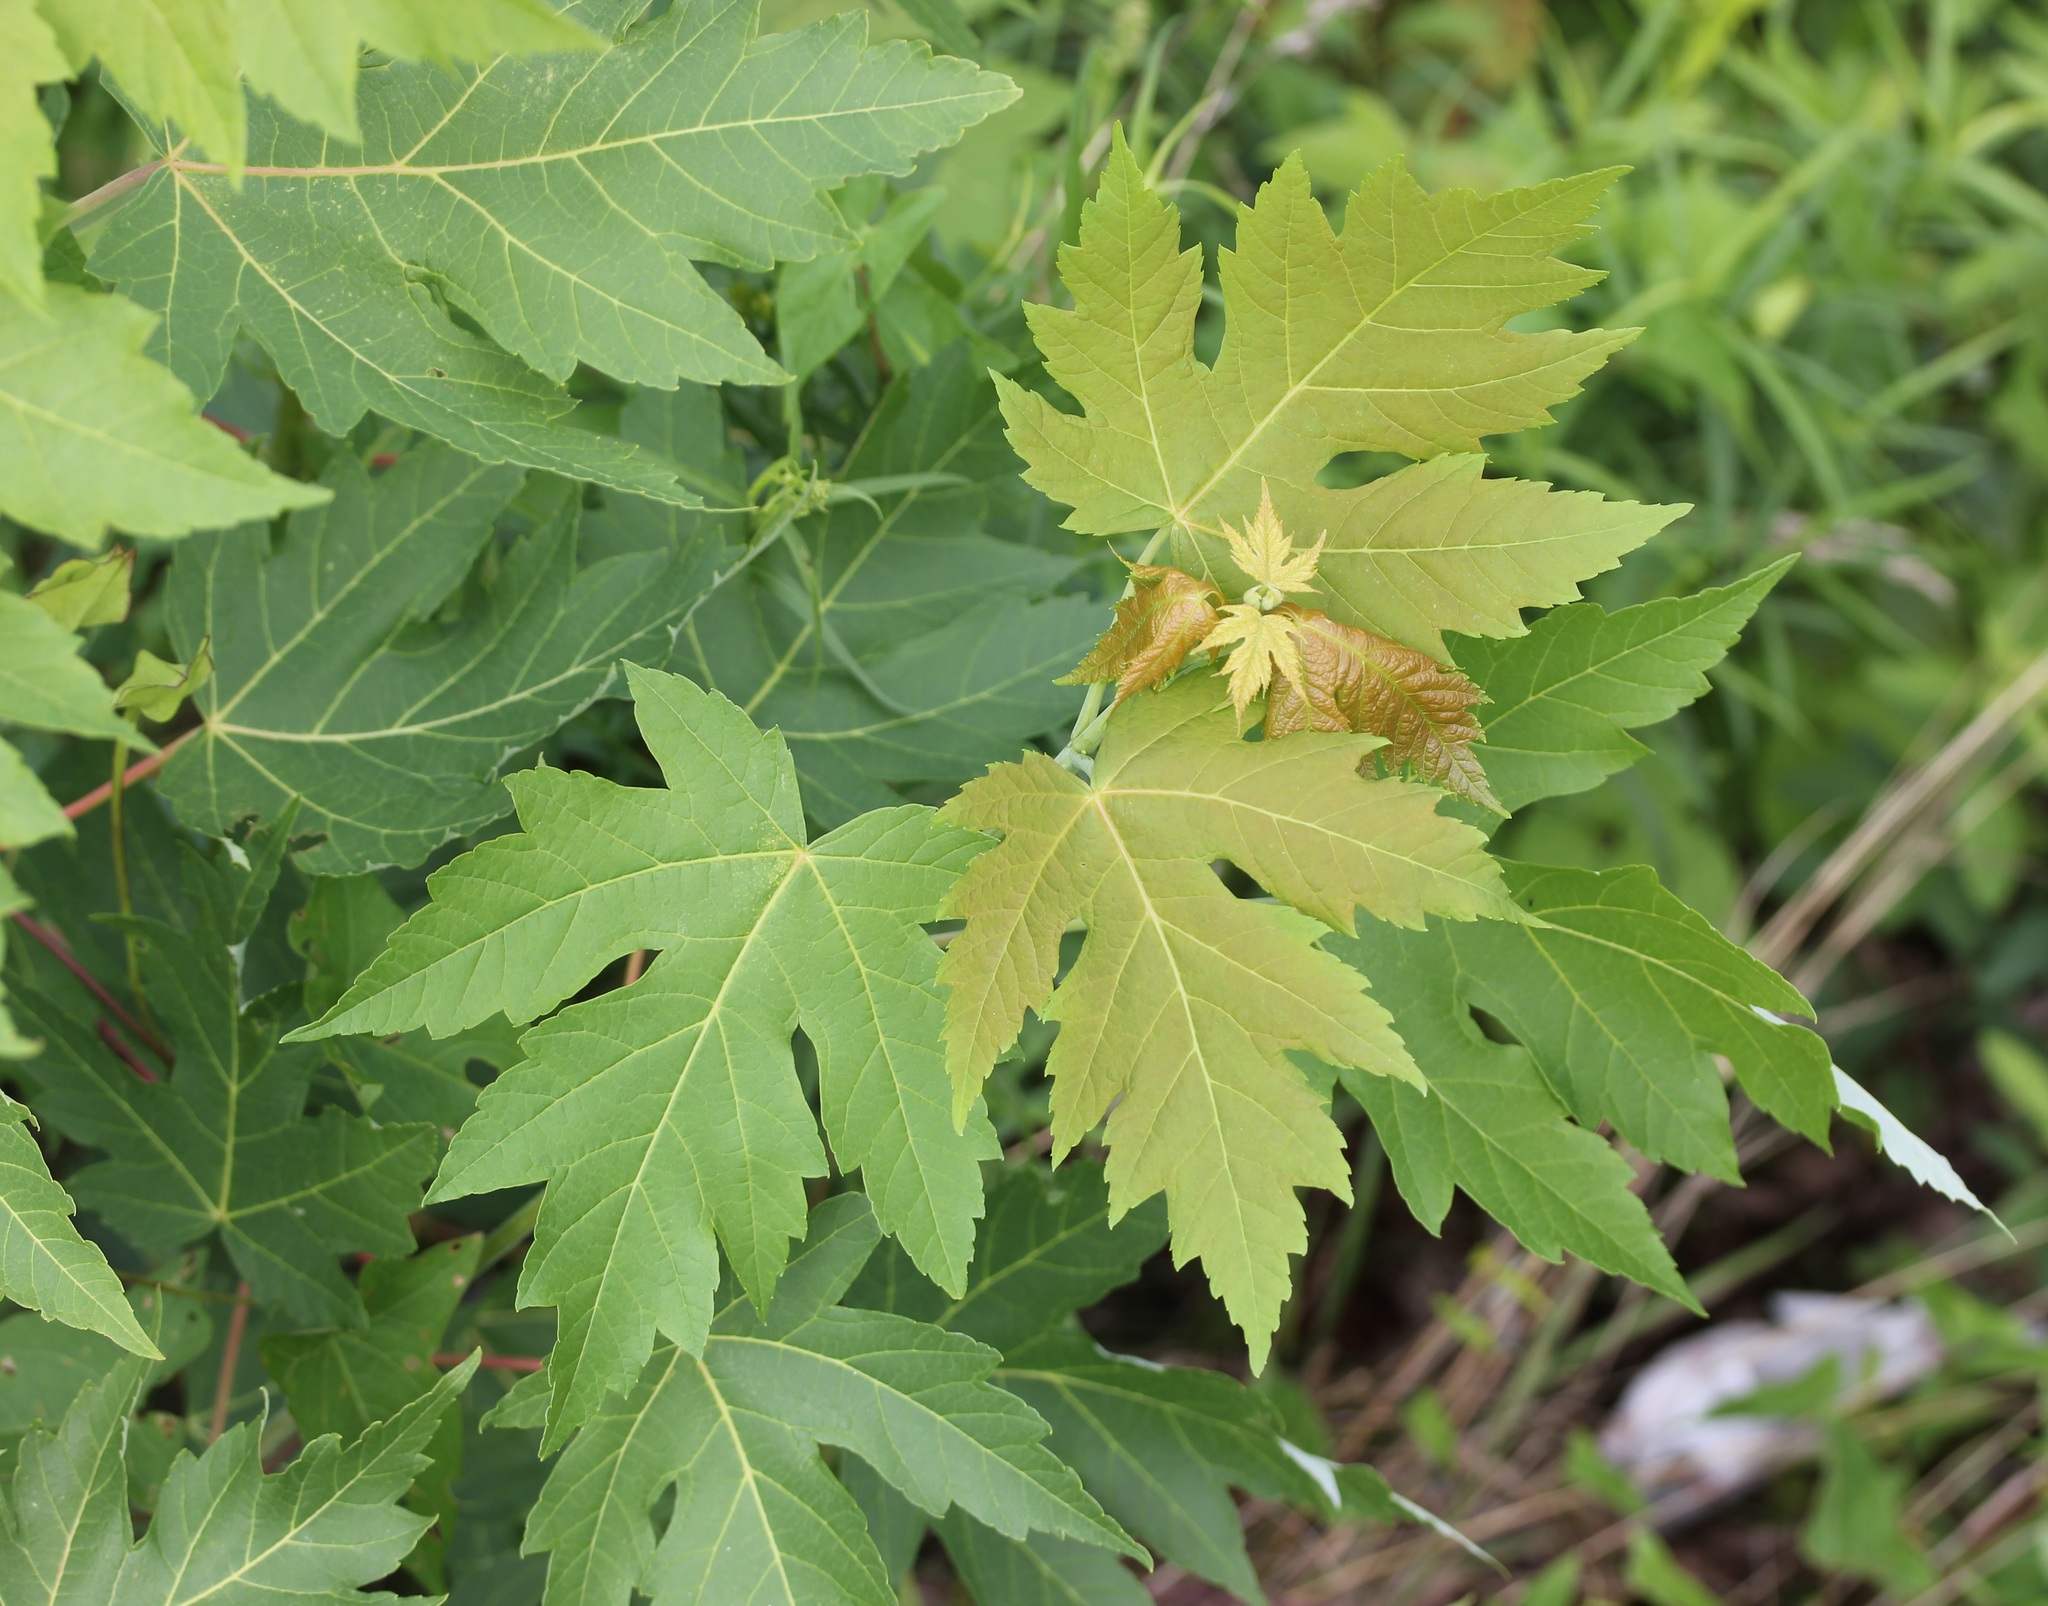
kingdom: Plantae
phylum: Tracheophyta
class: Magnoliopsida
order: Sapindales
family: Sapindaceae
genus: Acer
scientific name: Acer saccharinum
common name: Silver maple
